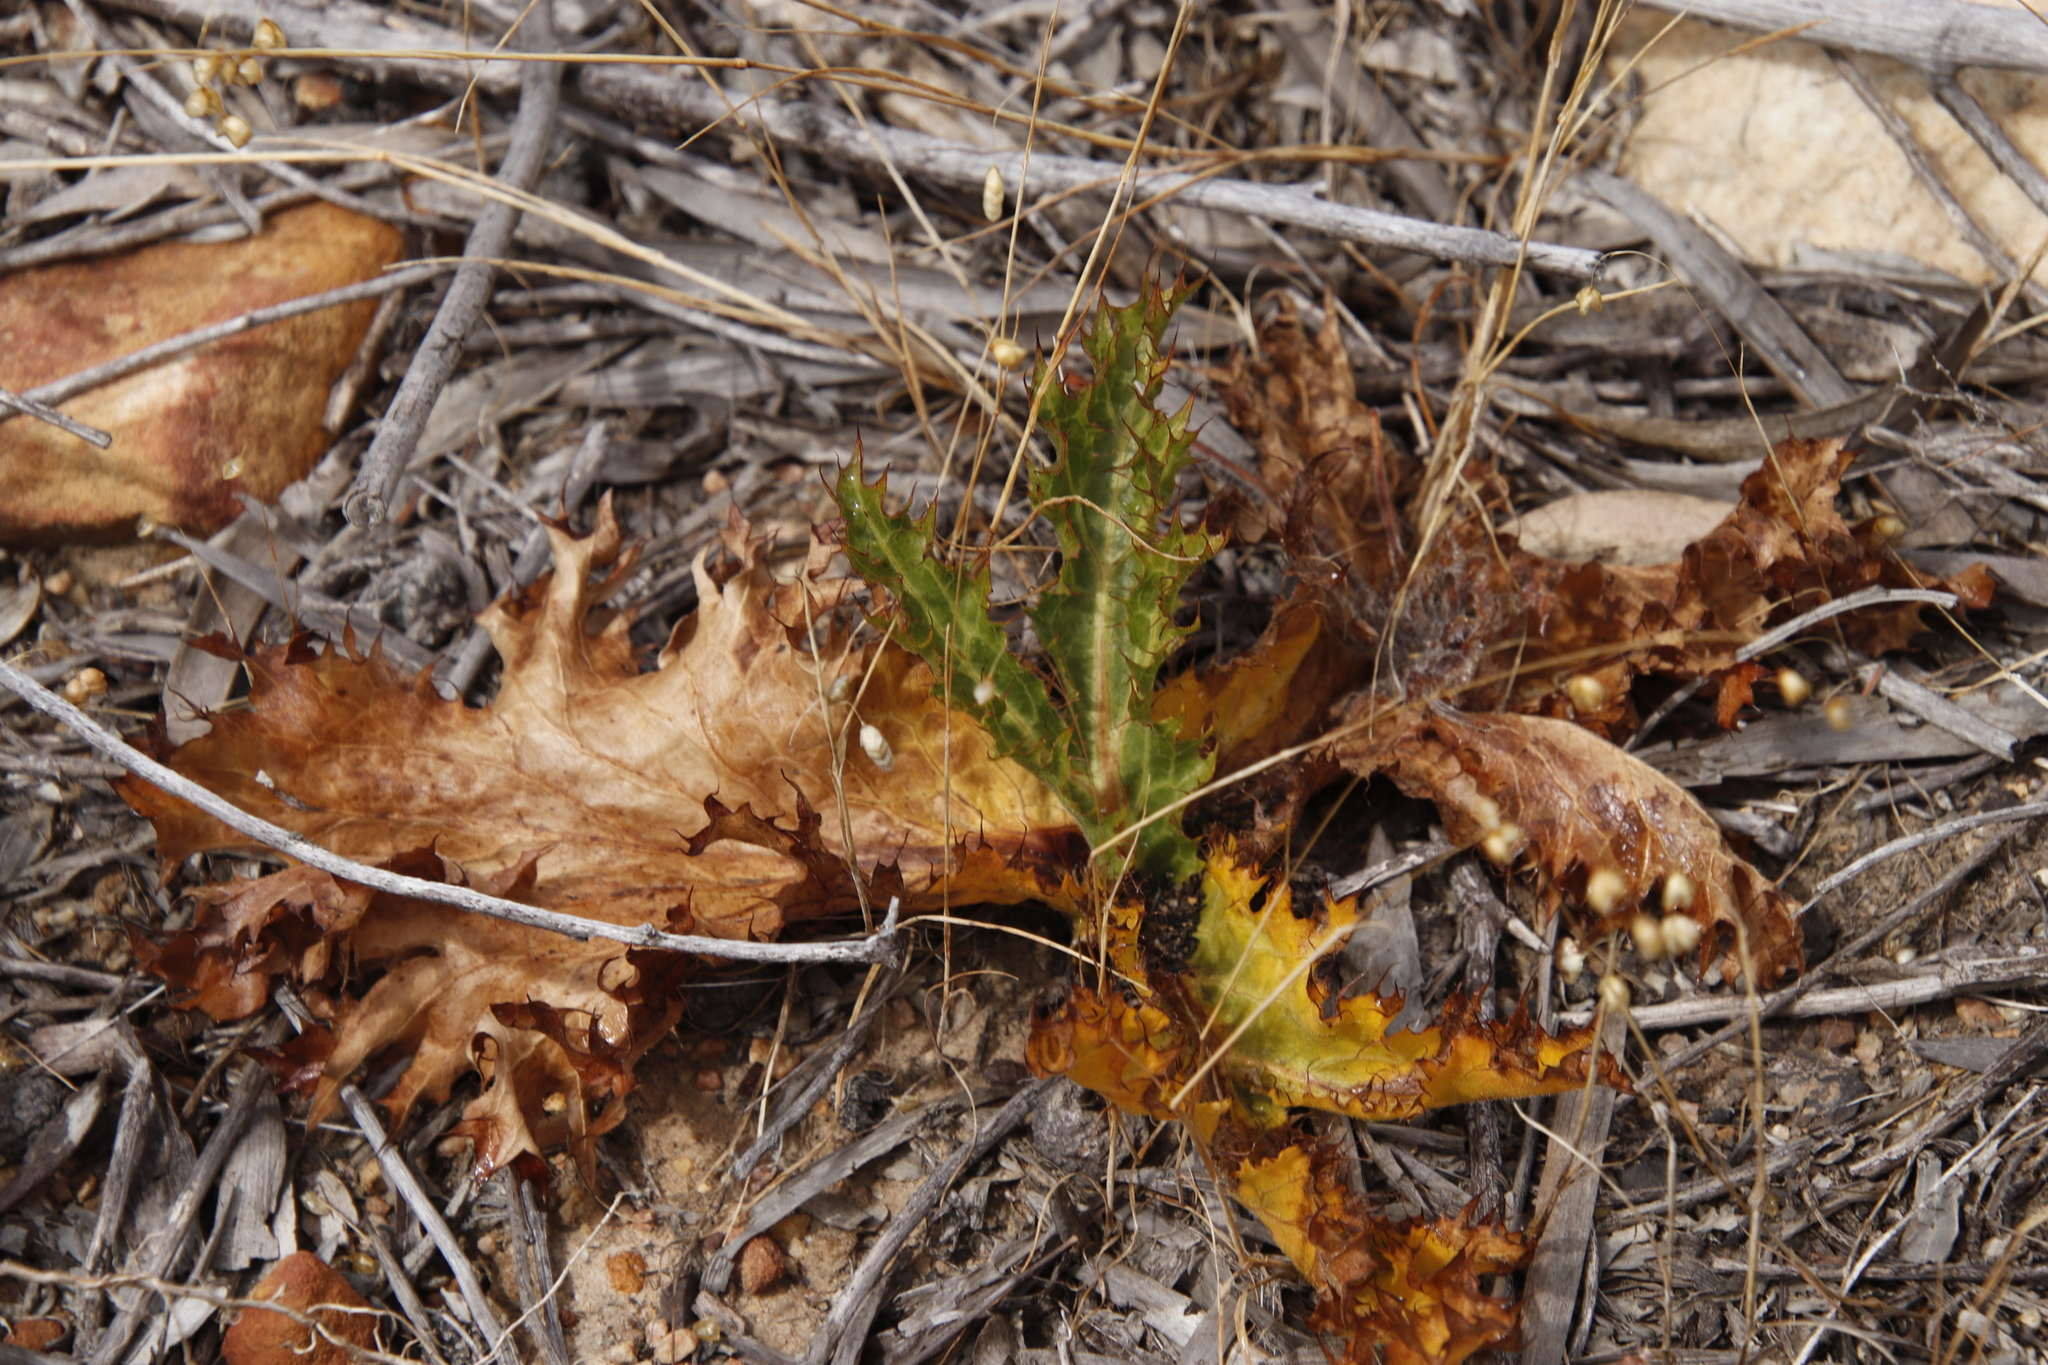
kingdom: Plantae
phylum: Tracheophyta
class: Magnoliopsida
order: Apiales
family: Apiaceae
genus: Lichtensteinia
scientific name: Lichtensteinia lacera
